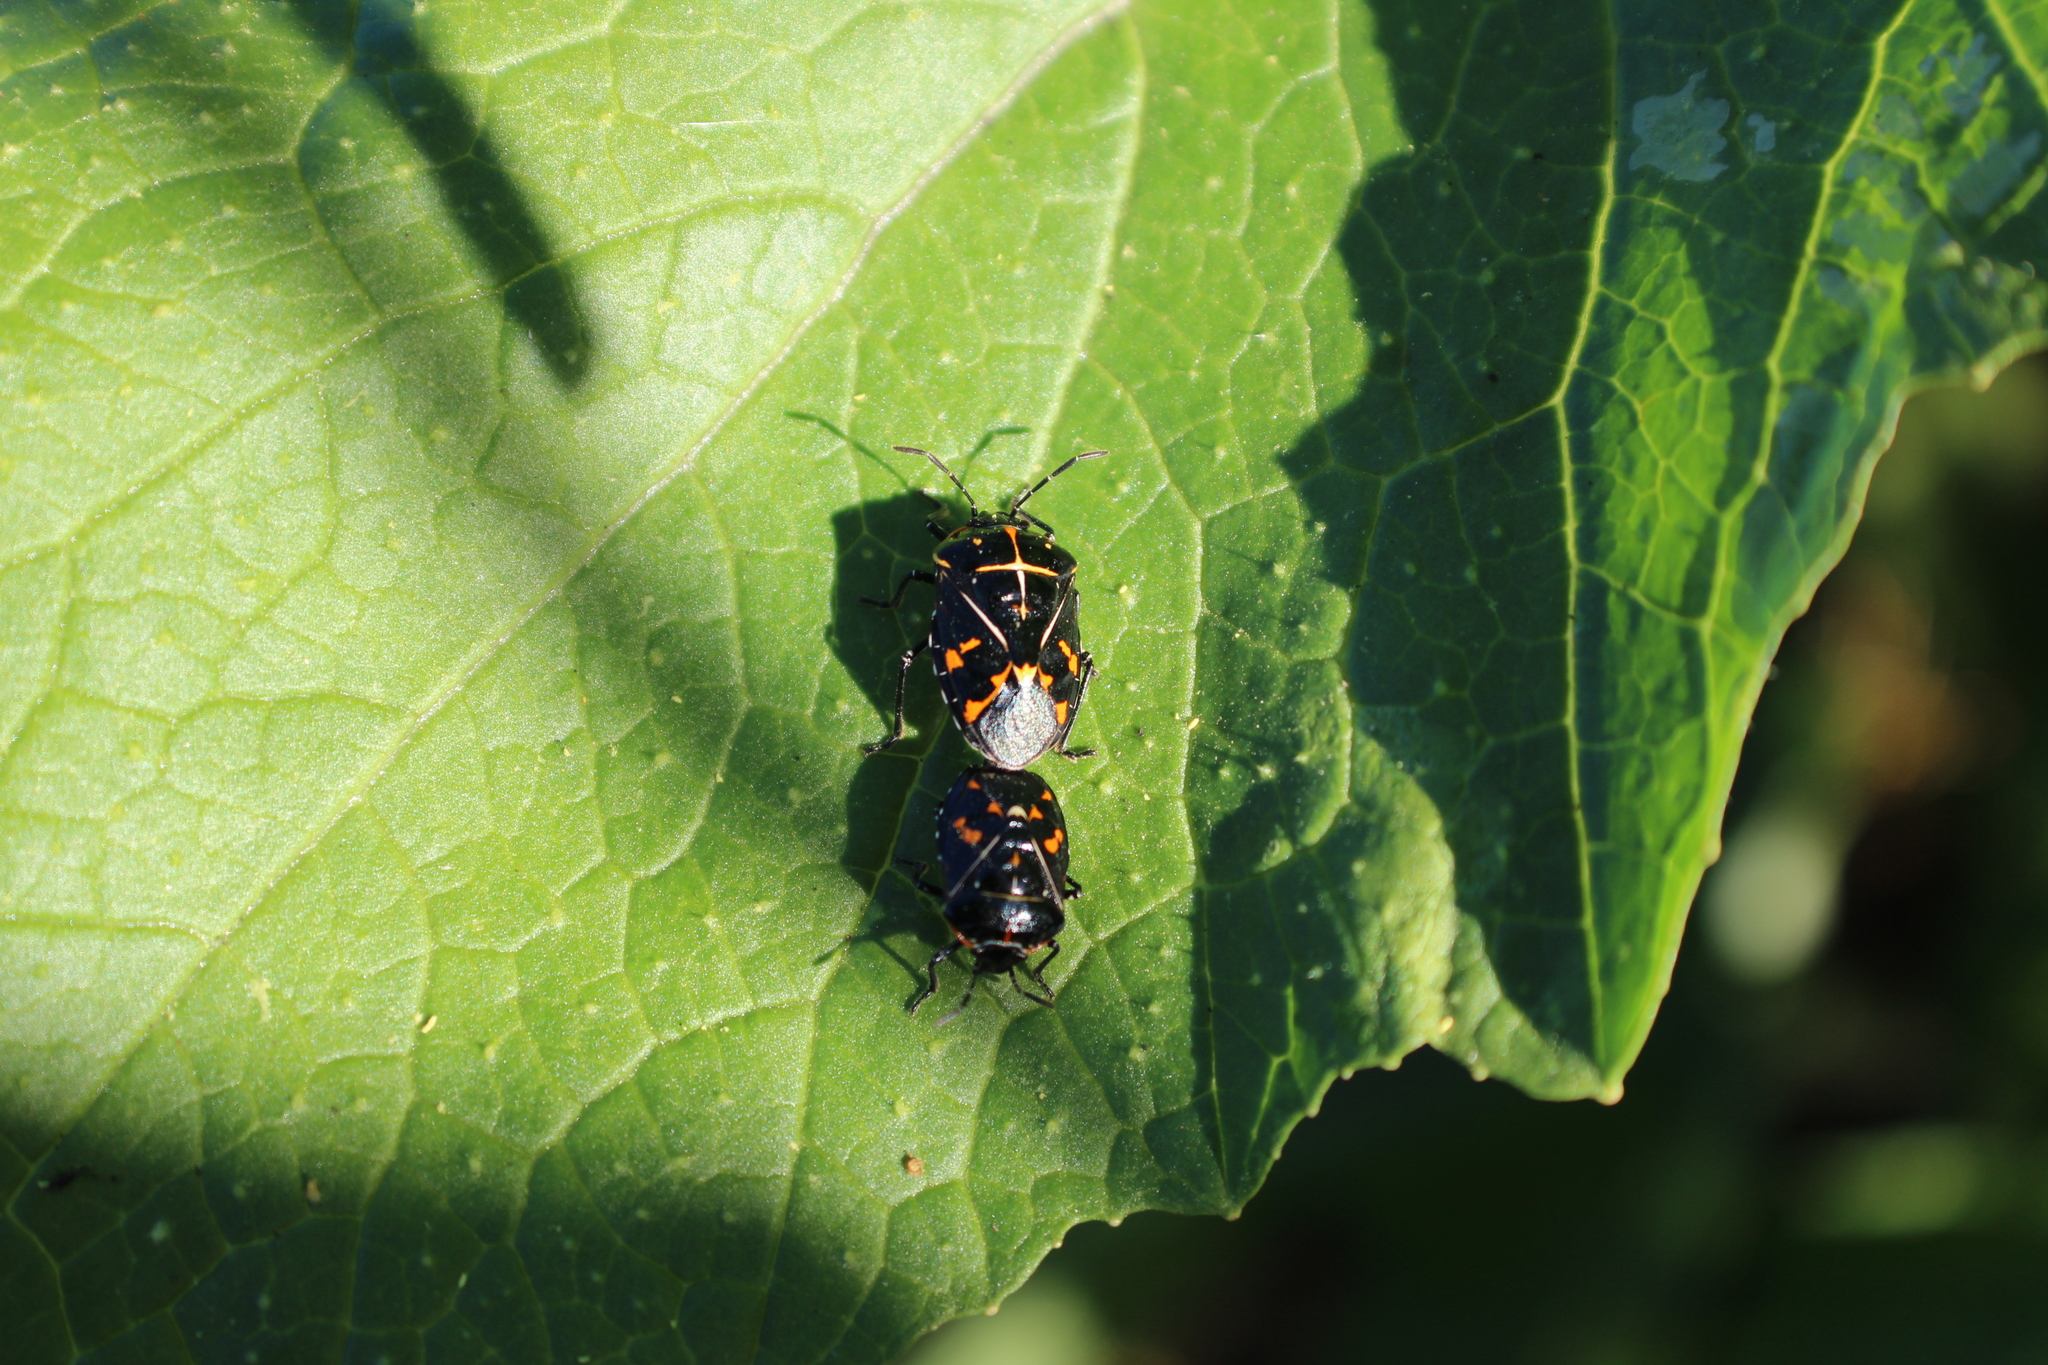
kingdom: Animalia
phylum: Arthropoda
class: Insecta
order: Hemiptera
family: Pentatomidae
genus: Murgantia
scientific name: Murgantia histrionica
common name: Harlequin bug
